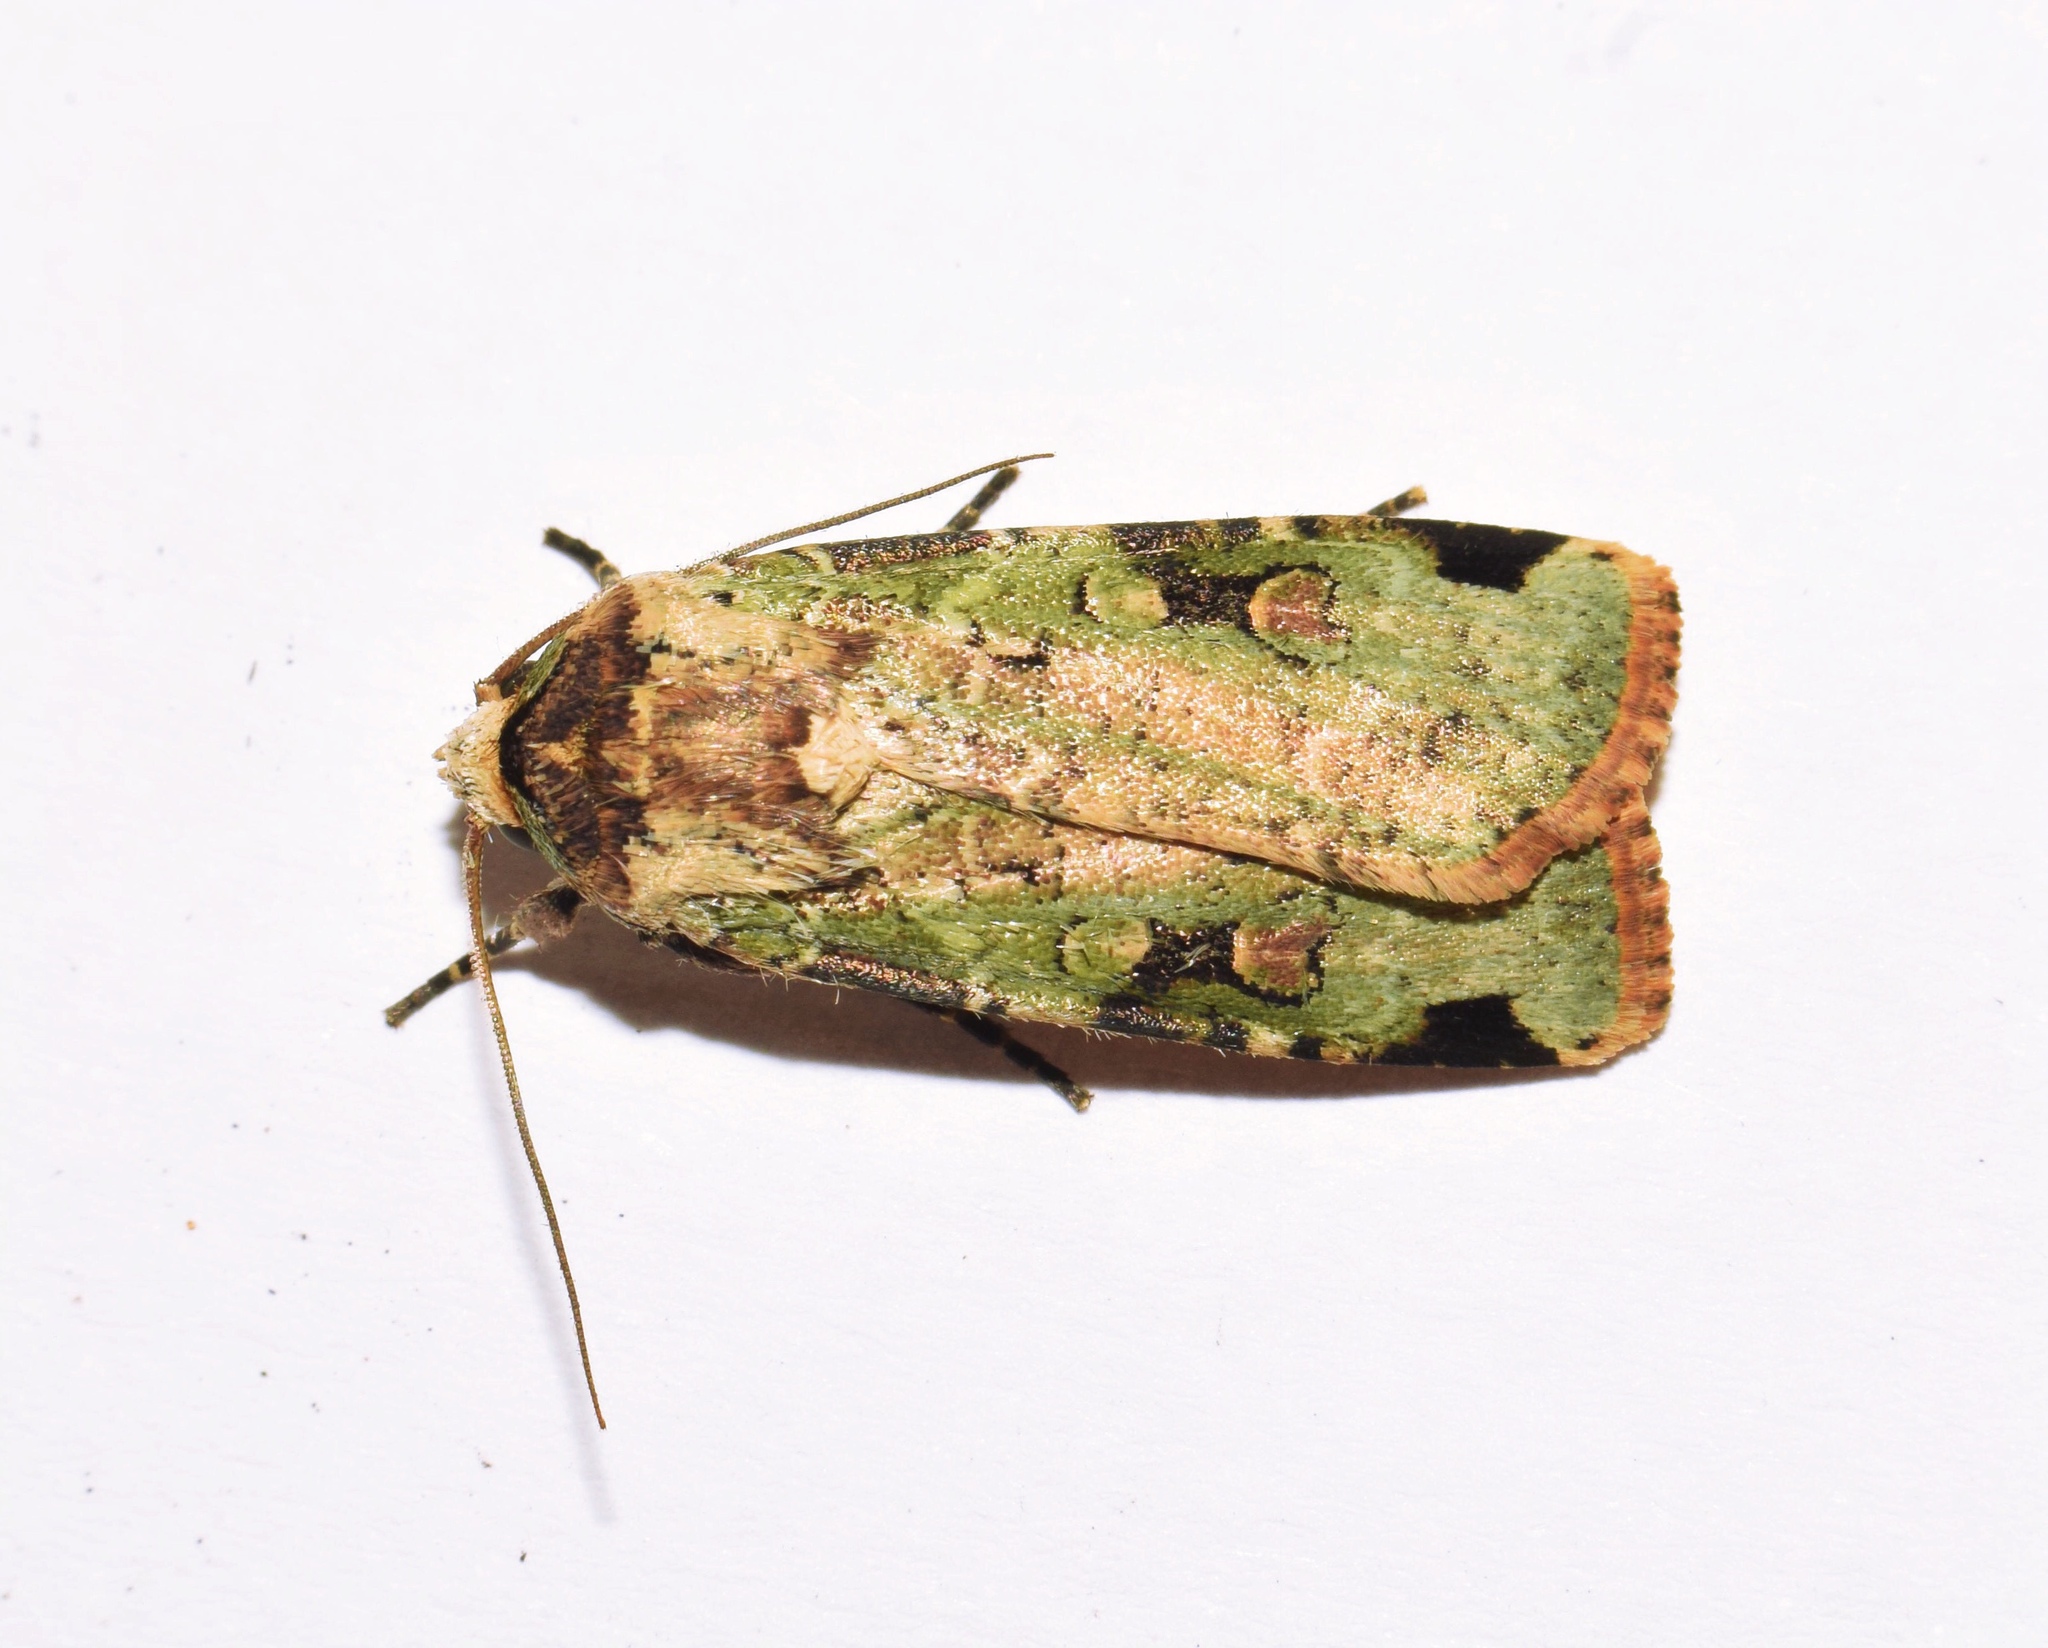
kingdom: Animalia
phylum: Arthropoda
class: Insecta
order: Lepidoptera
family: Noctuidae
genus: Mentaxya
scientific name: Mentaxya ignicollis
